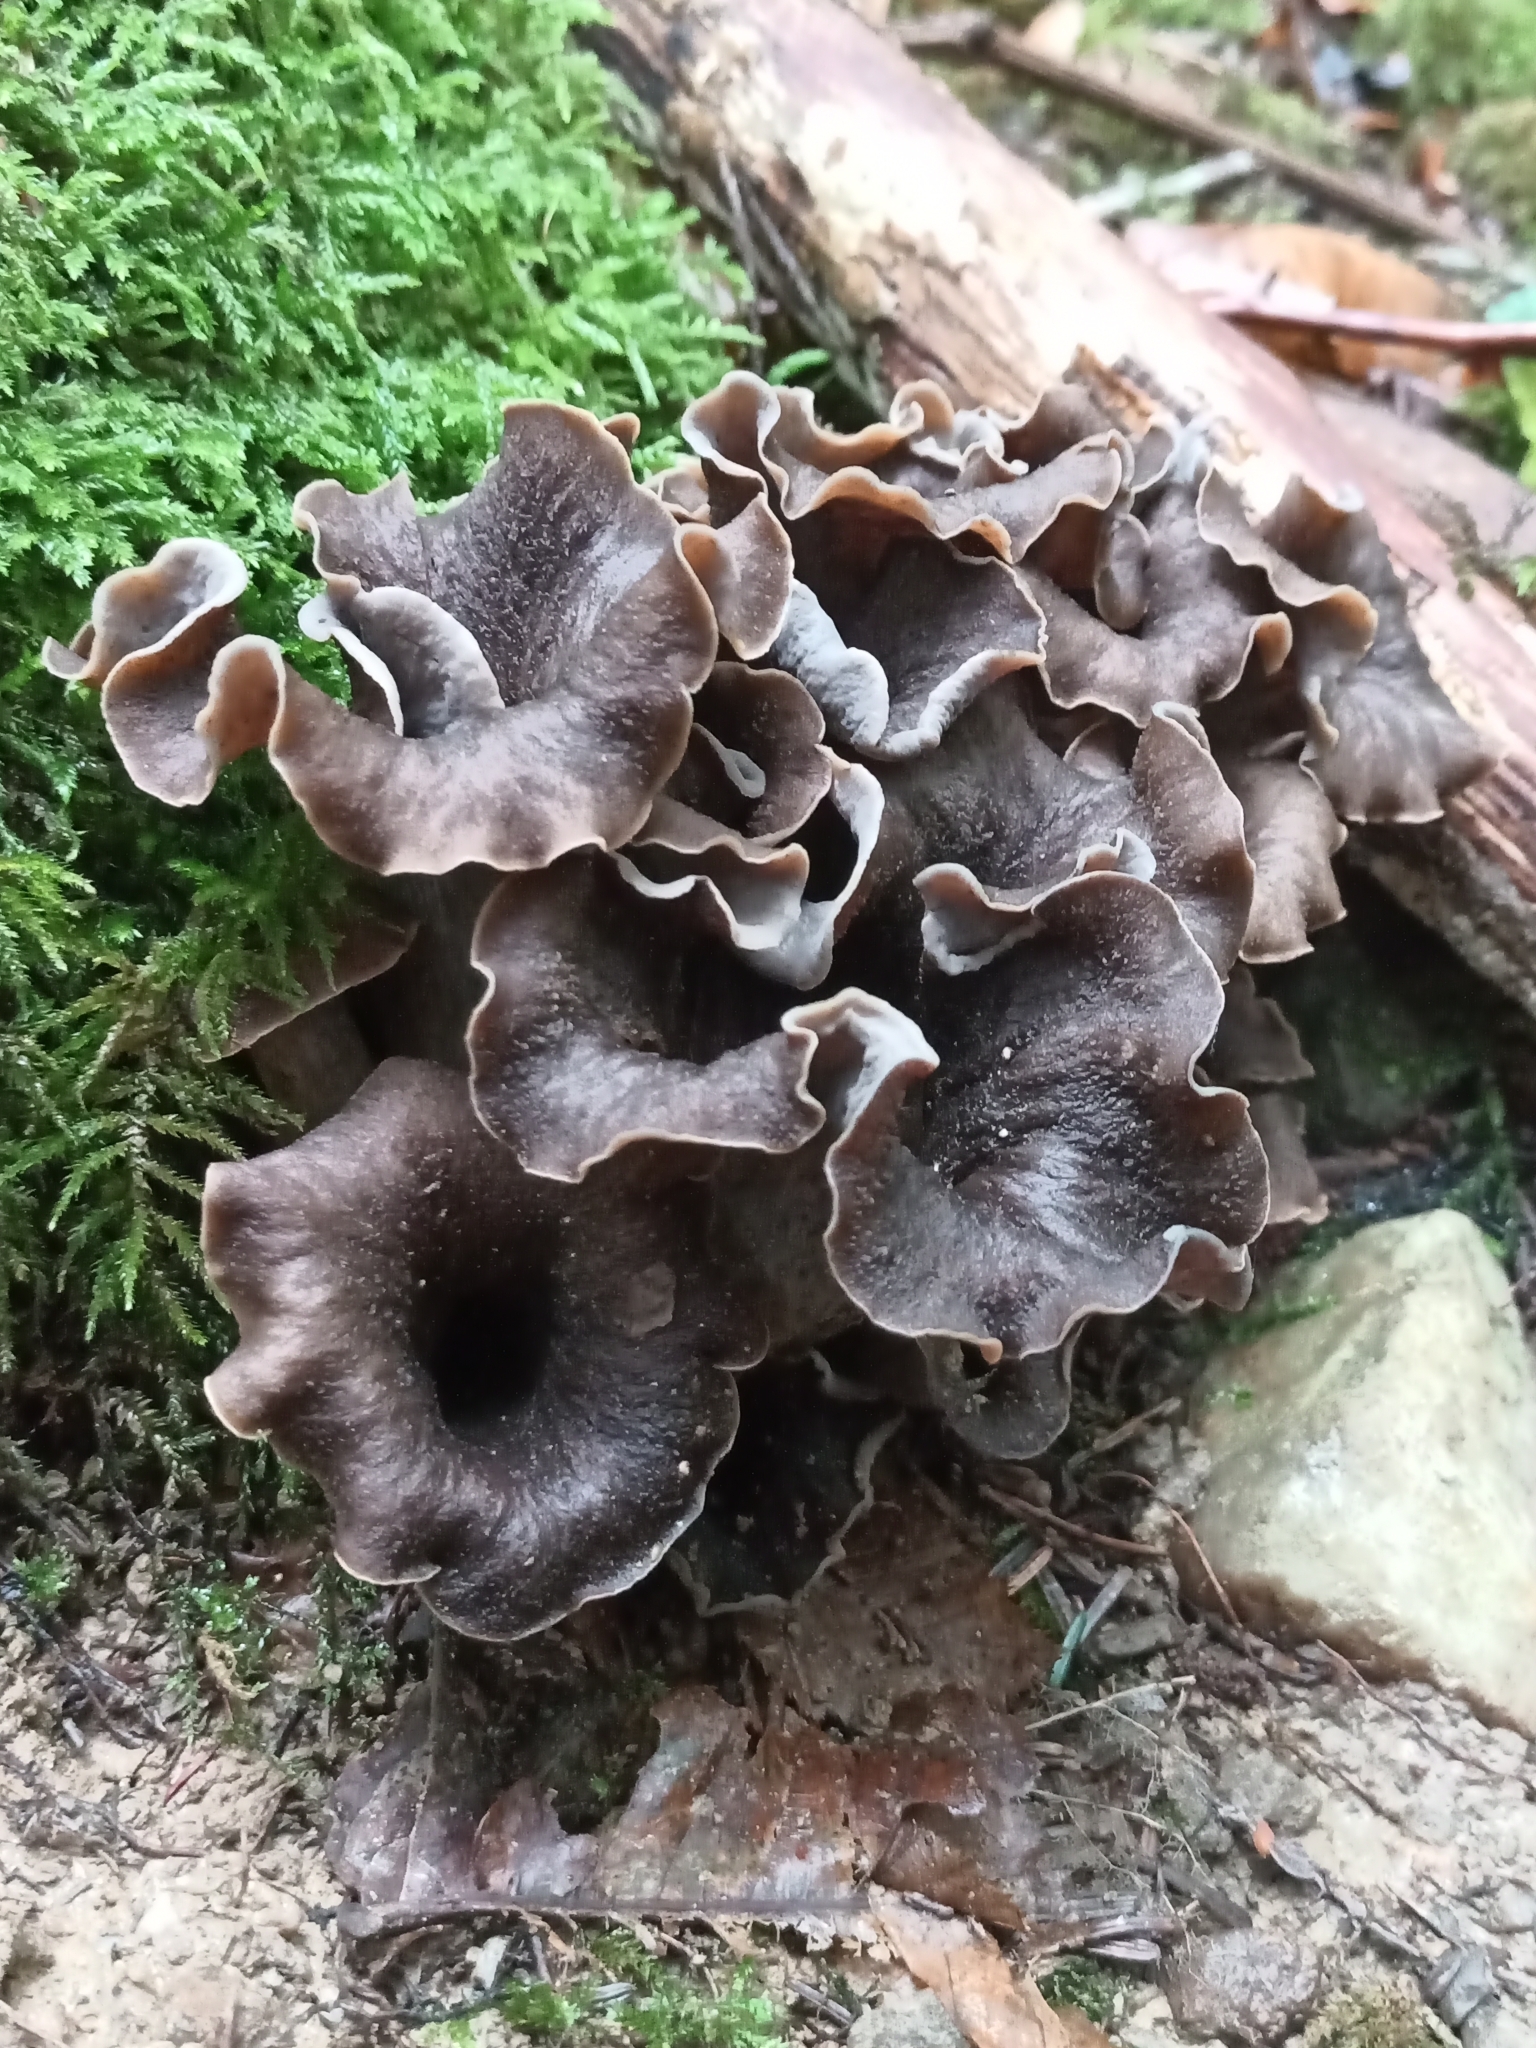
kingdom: Fungi
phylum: Basidiomycota
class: Agaricomycetes
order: Cantharellales
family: Hydnaceae
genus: Craterellus
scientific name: Craterellus cornucopioides
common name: Horn of plenty
